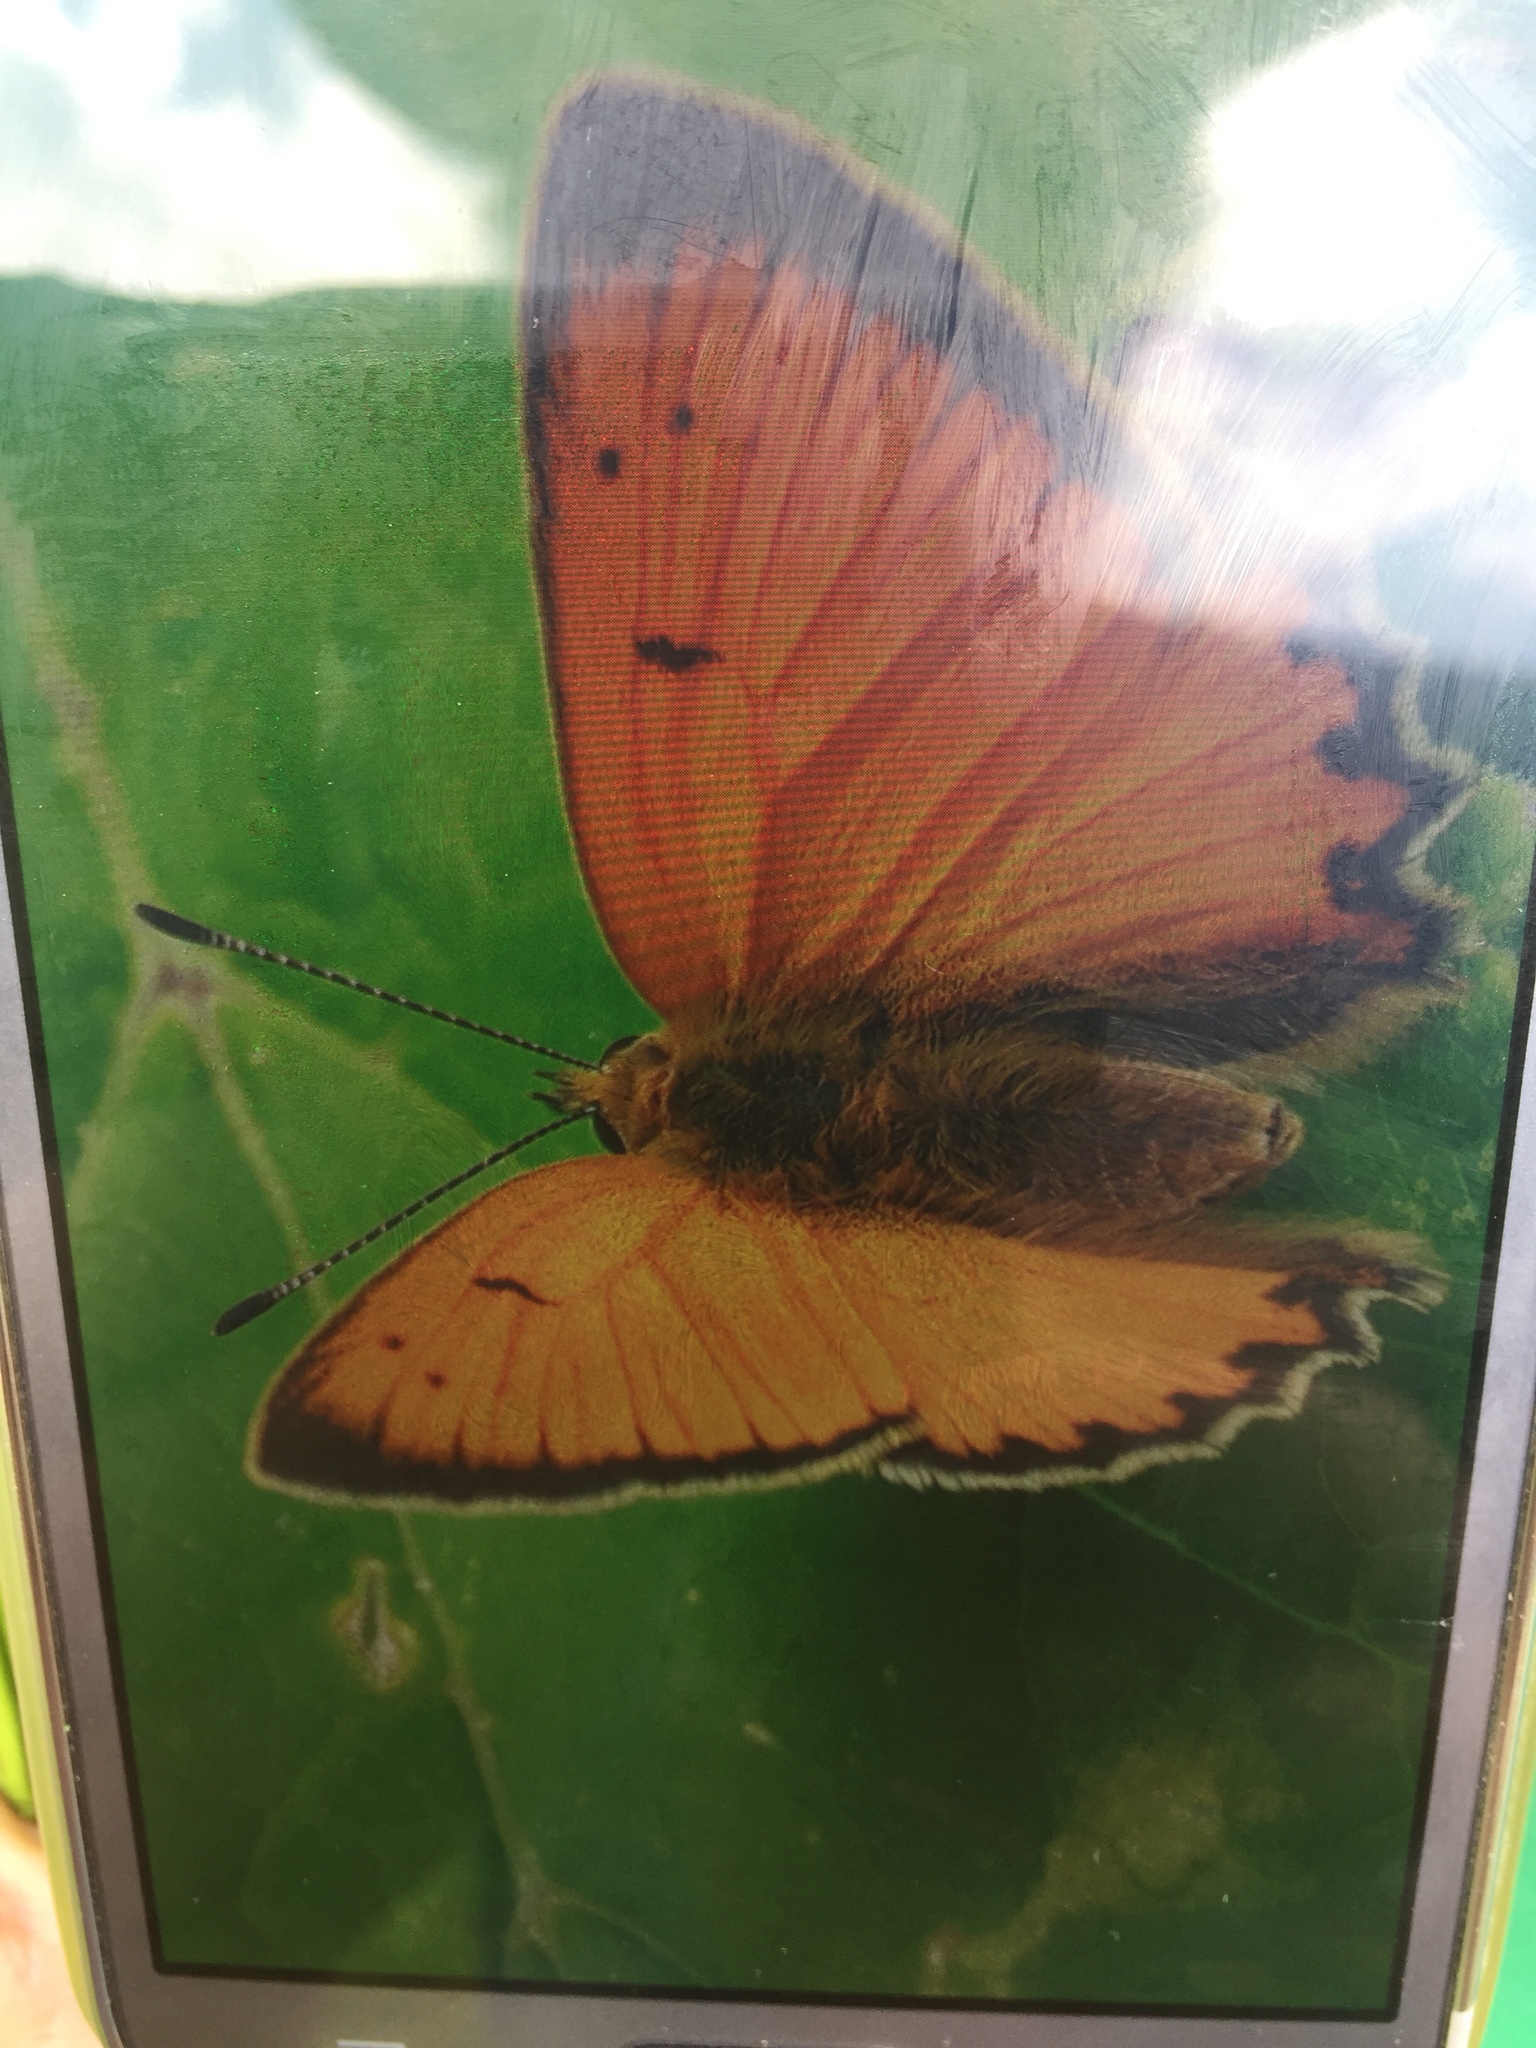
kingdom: Animalia
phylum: Arthropoda
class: Insecta
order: Lepidoptera
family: Lycaenidae
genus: Lycaena
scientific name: Lycaena virgaureae
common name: Scarce copper
